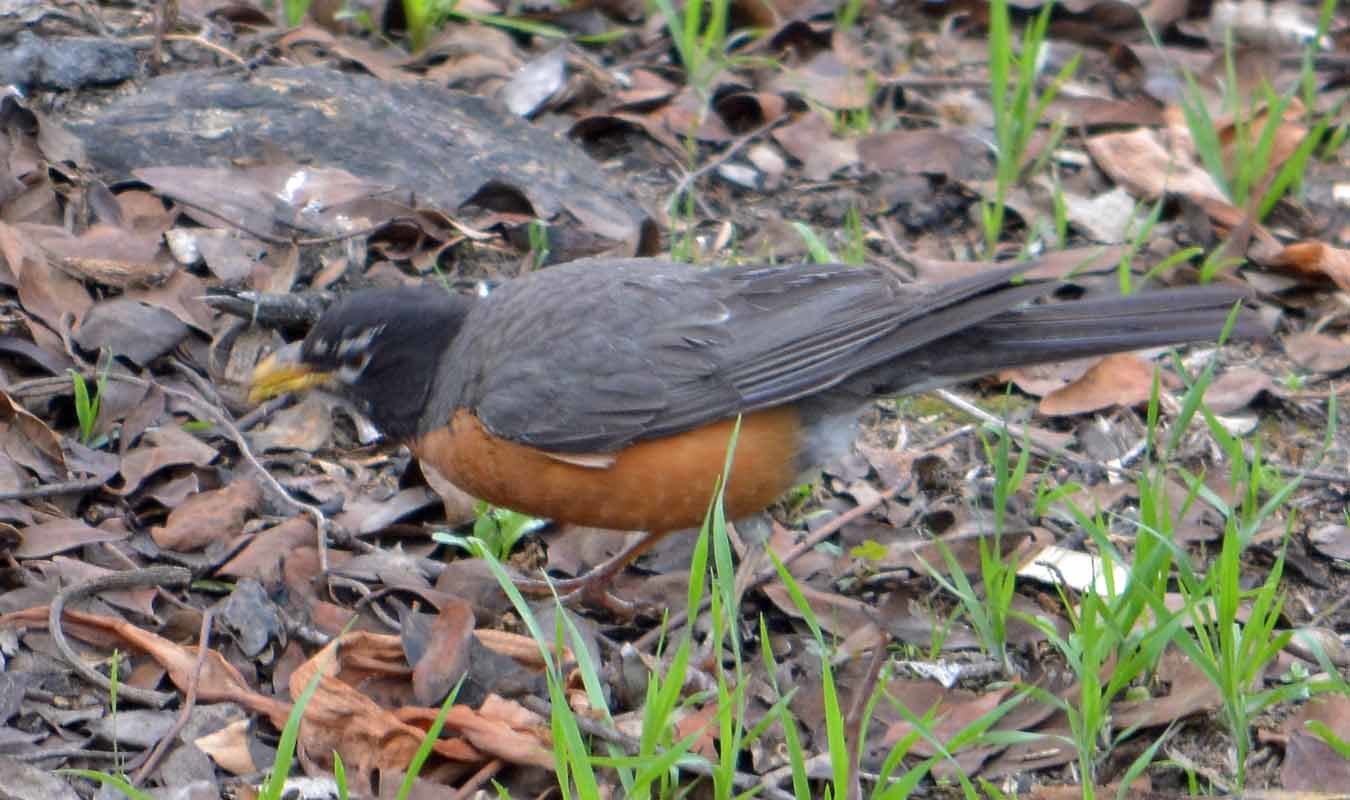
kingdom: Animalia
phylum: Chordata
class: Aves
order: Passeriformes
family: Turdidae
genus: Turdus
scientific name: Turdus migratorius
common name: American robin
